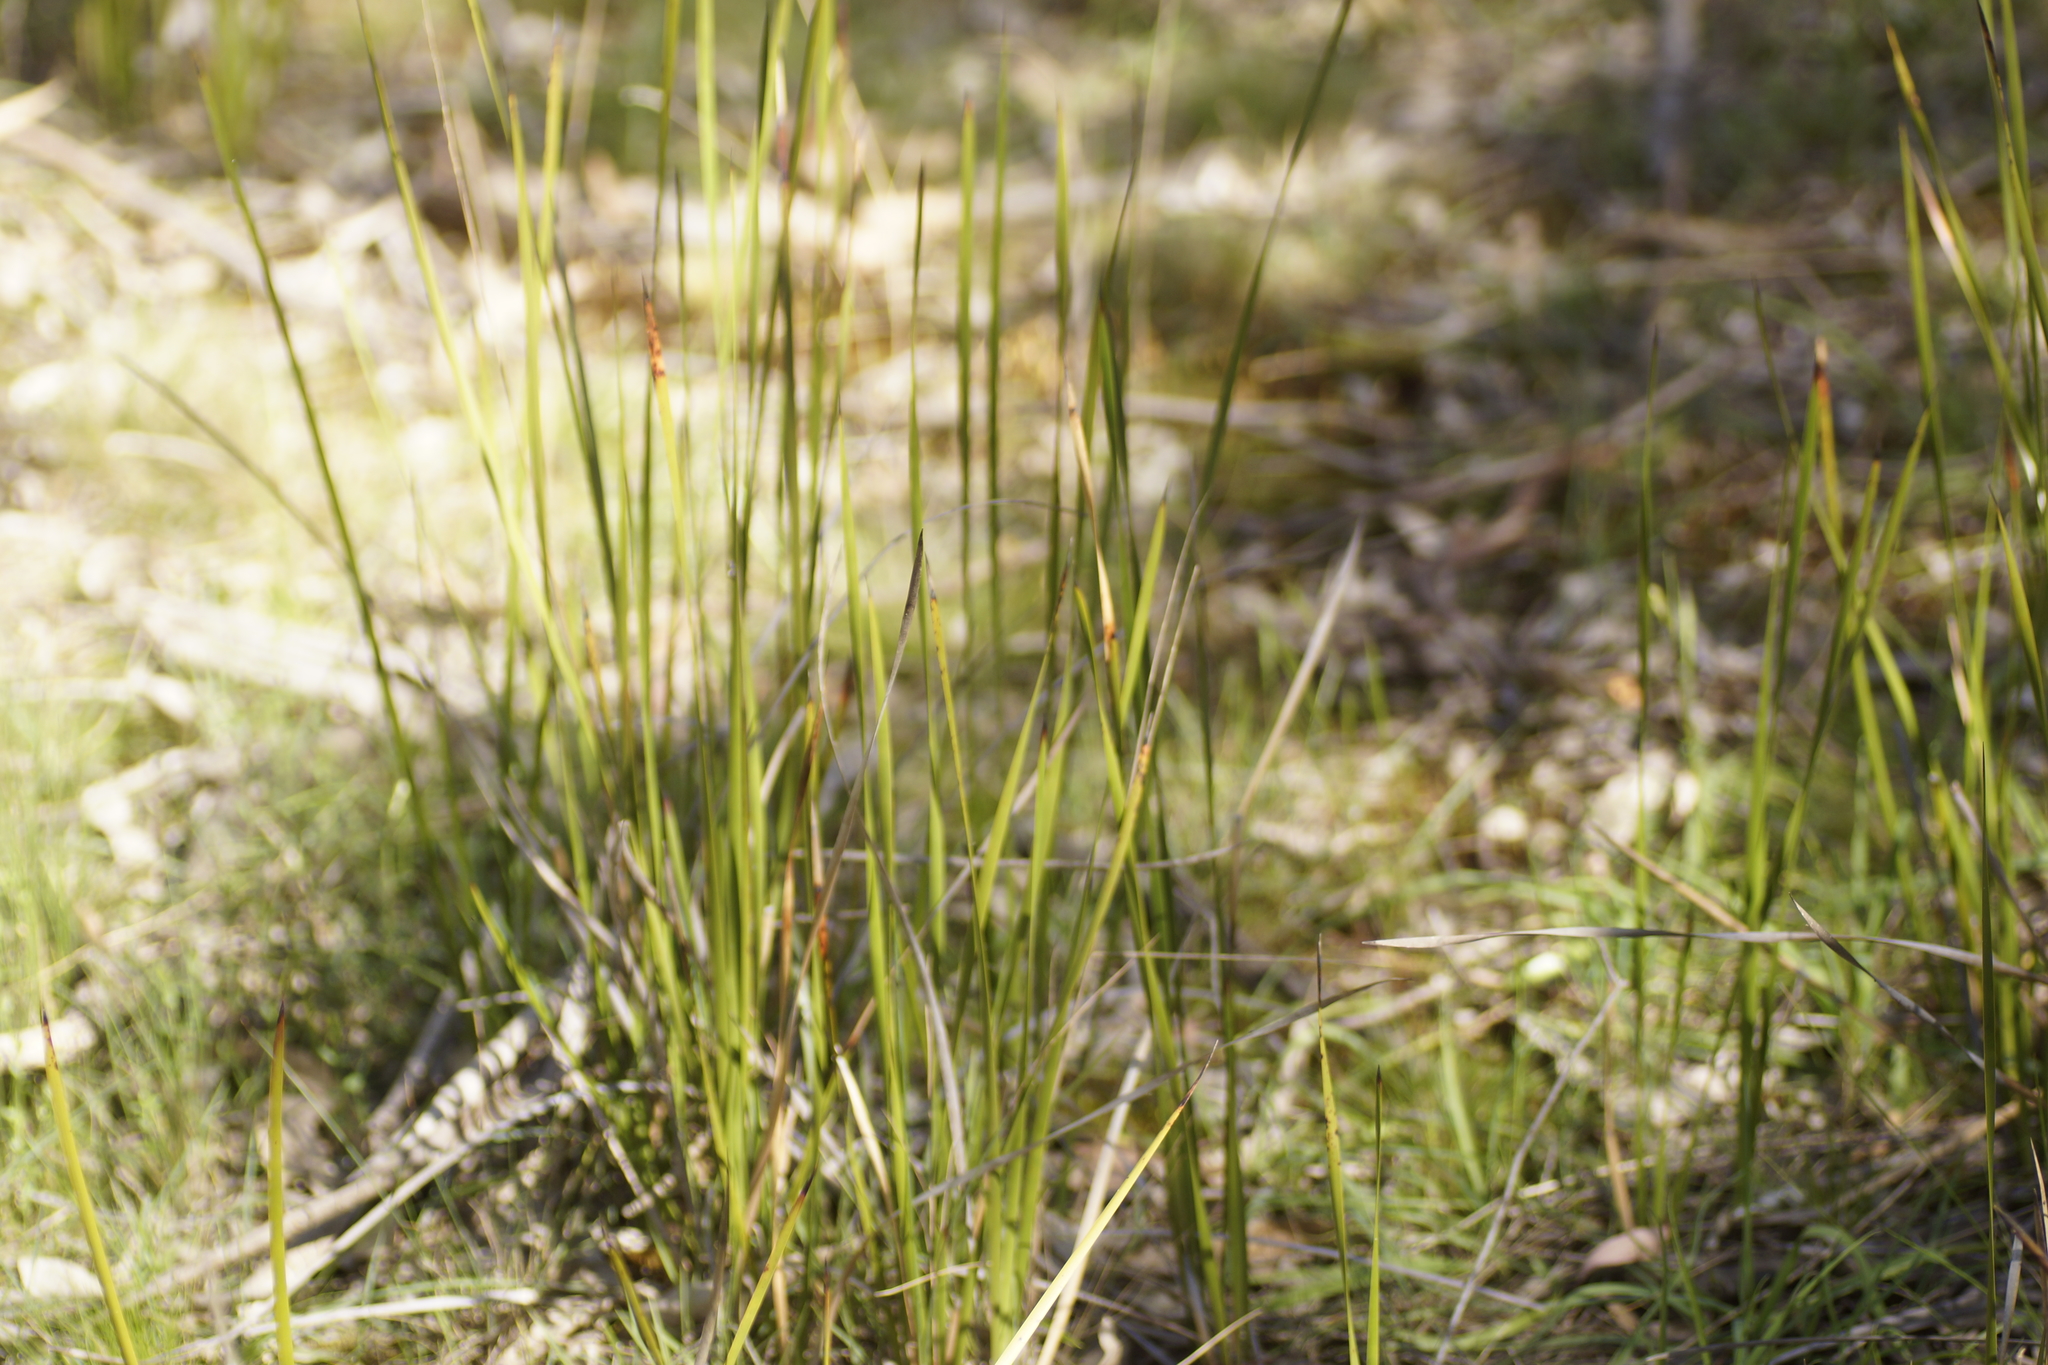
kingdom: Plantae
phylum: Tracheophyta
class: Liliopsida
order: Poales
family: Cyperaceae
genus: Lepidosperma
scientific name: Lepidosperma
